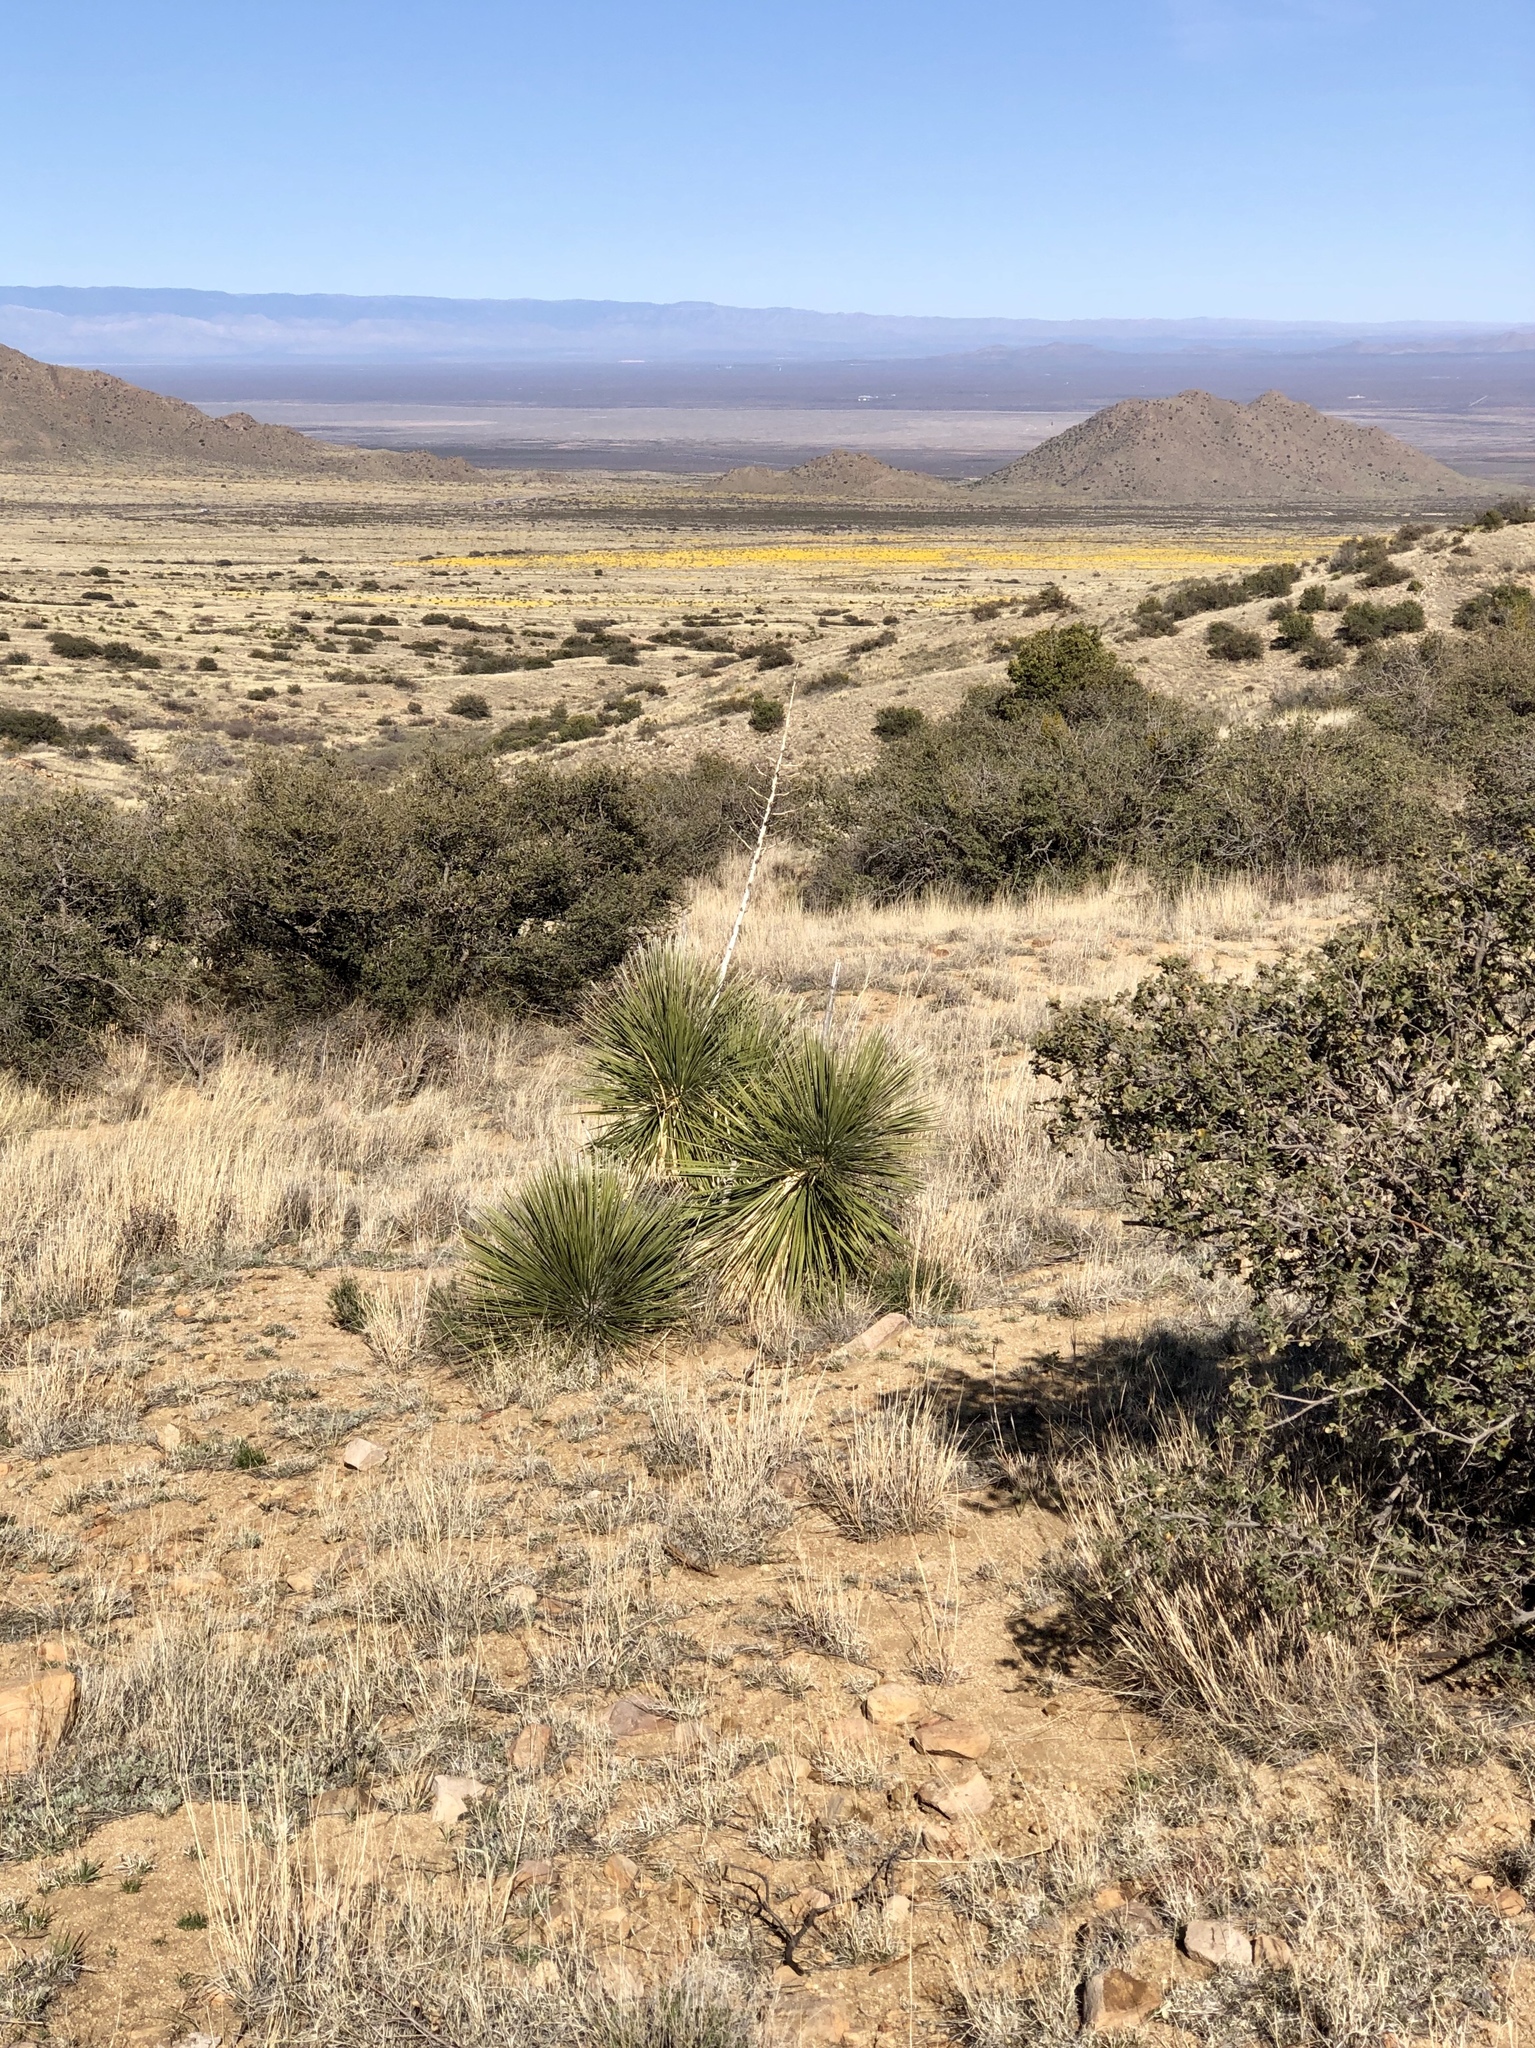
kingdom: Plantae
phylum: Tracheophyta
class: Liliopsida
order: Asparagales
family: Asparagaceae
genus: Yucca
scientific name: Yucca elata
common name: Palmella
